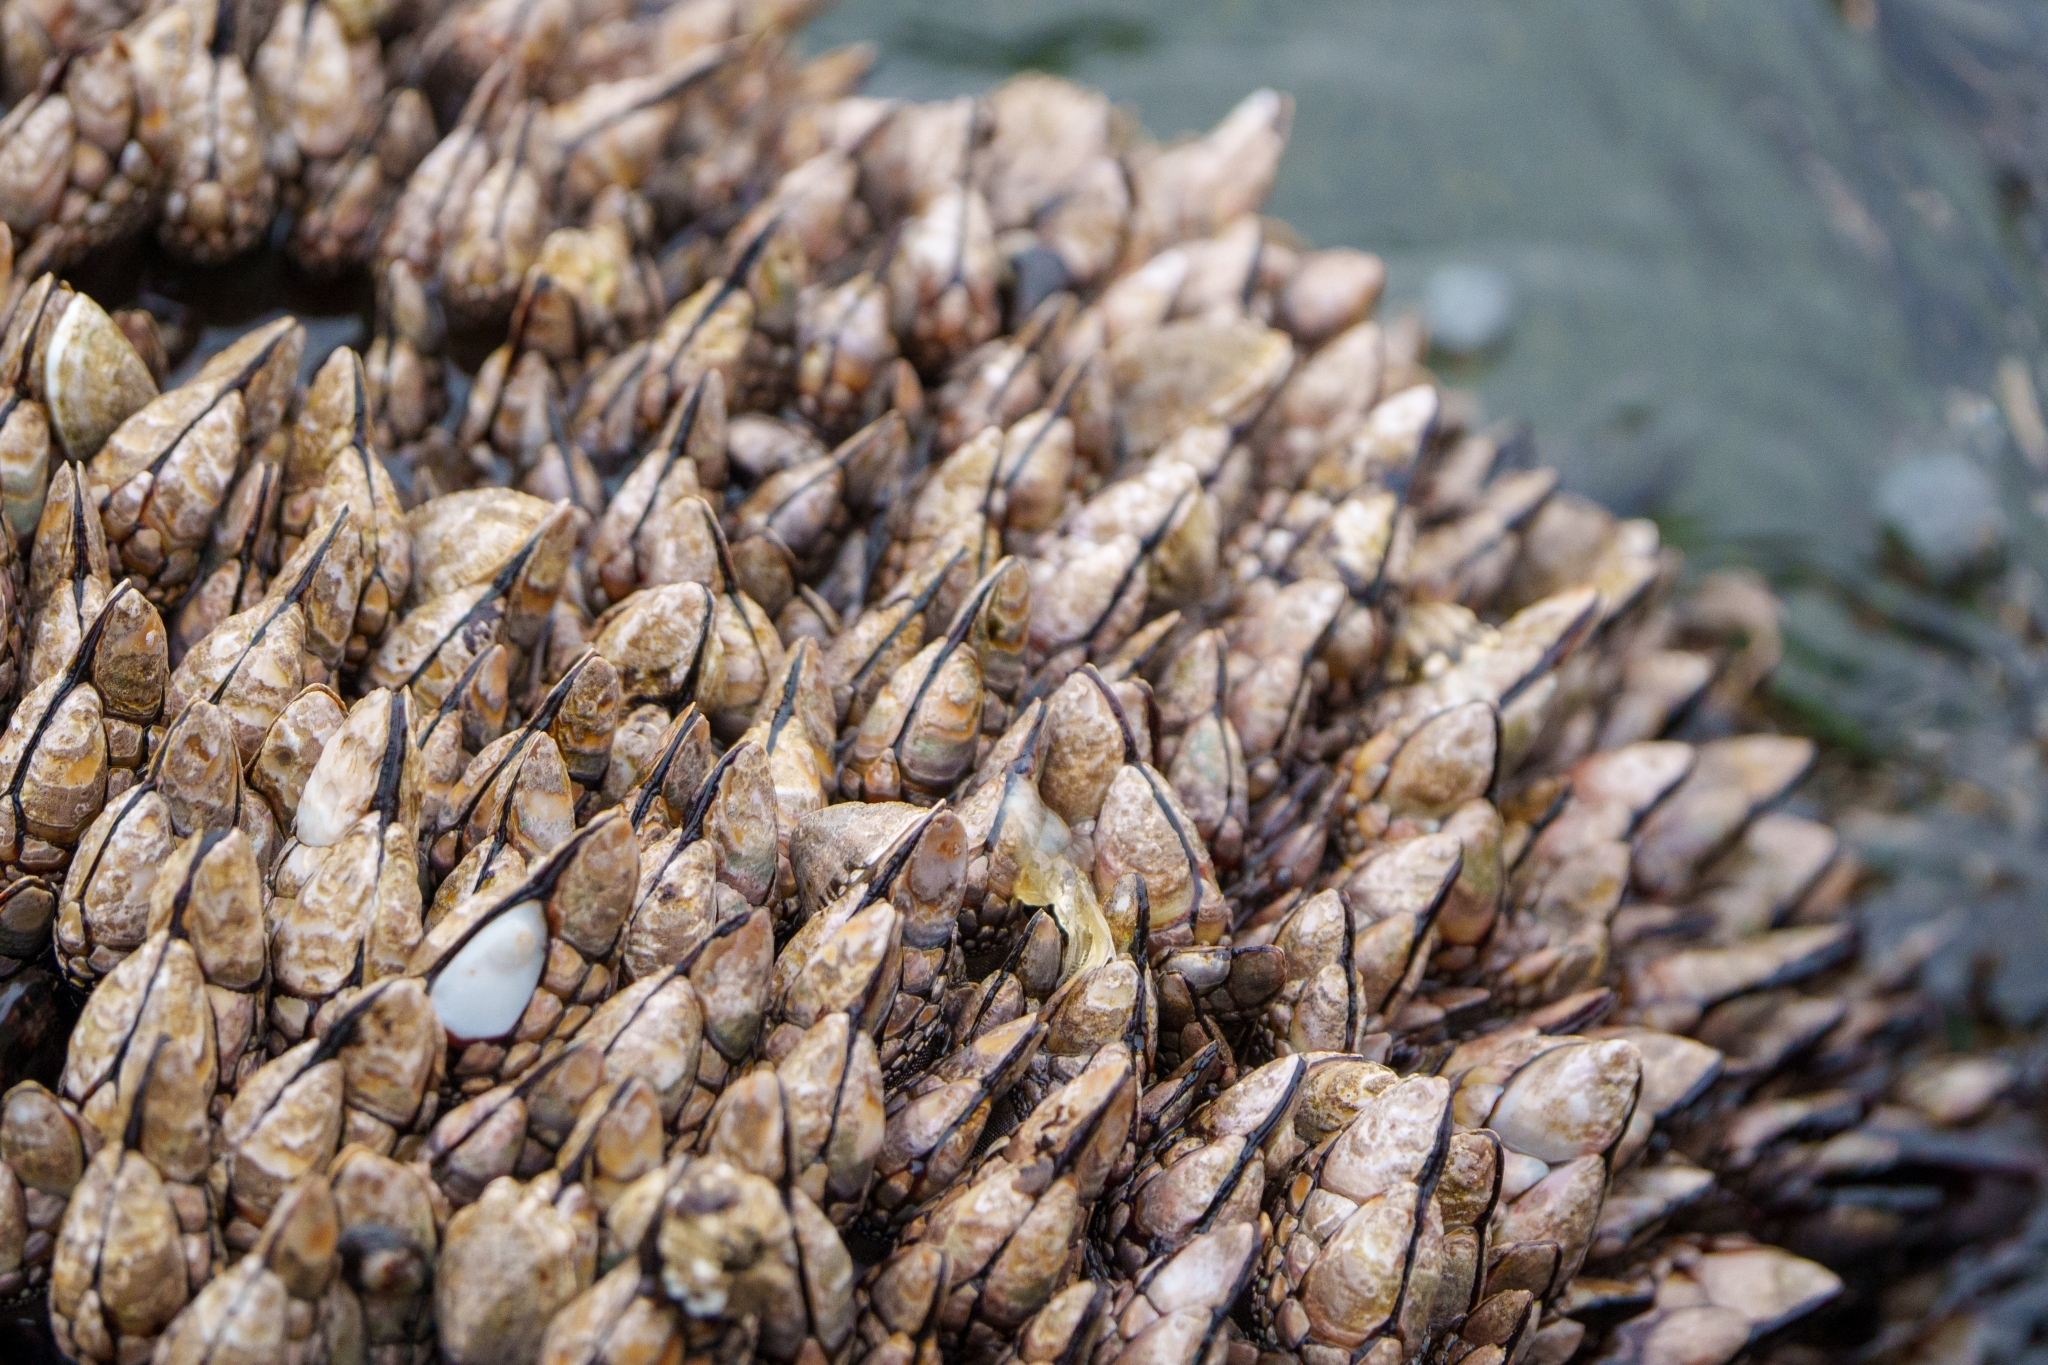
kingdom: Animalia
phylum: Arthropoda
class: Maxillopoda
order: Pedunculata
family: Pollicipedidae
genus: Pollicipes
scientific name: Pollicipes polymerus
